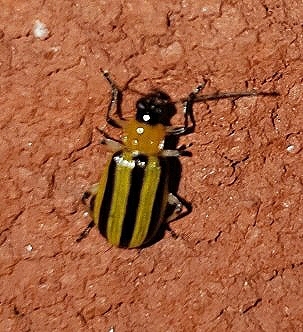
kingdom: Animalia
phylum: Arthropoda
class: Insecta
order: Coleoptera
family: Chrysomelidae
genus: Acalymma
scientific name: Acalymma vittatum
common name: Striped cucumber beetle
